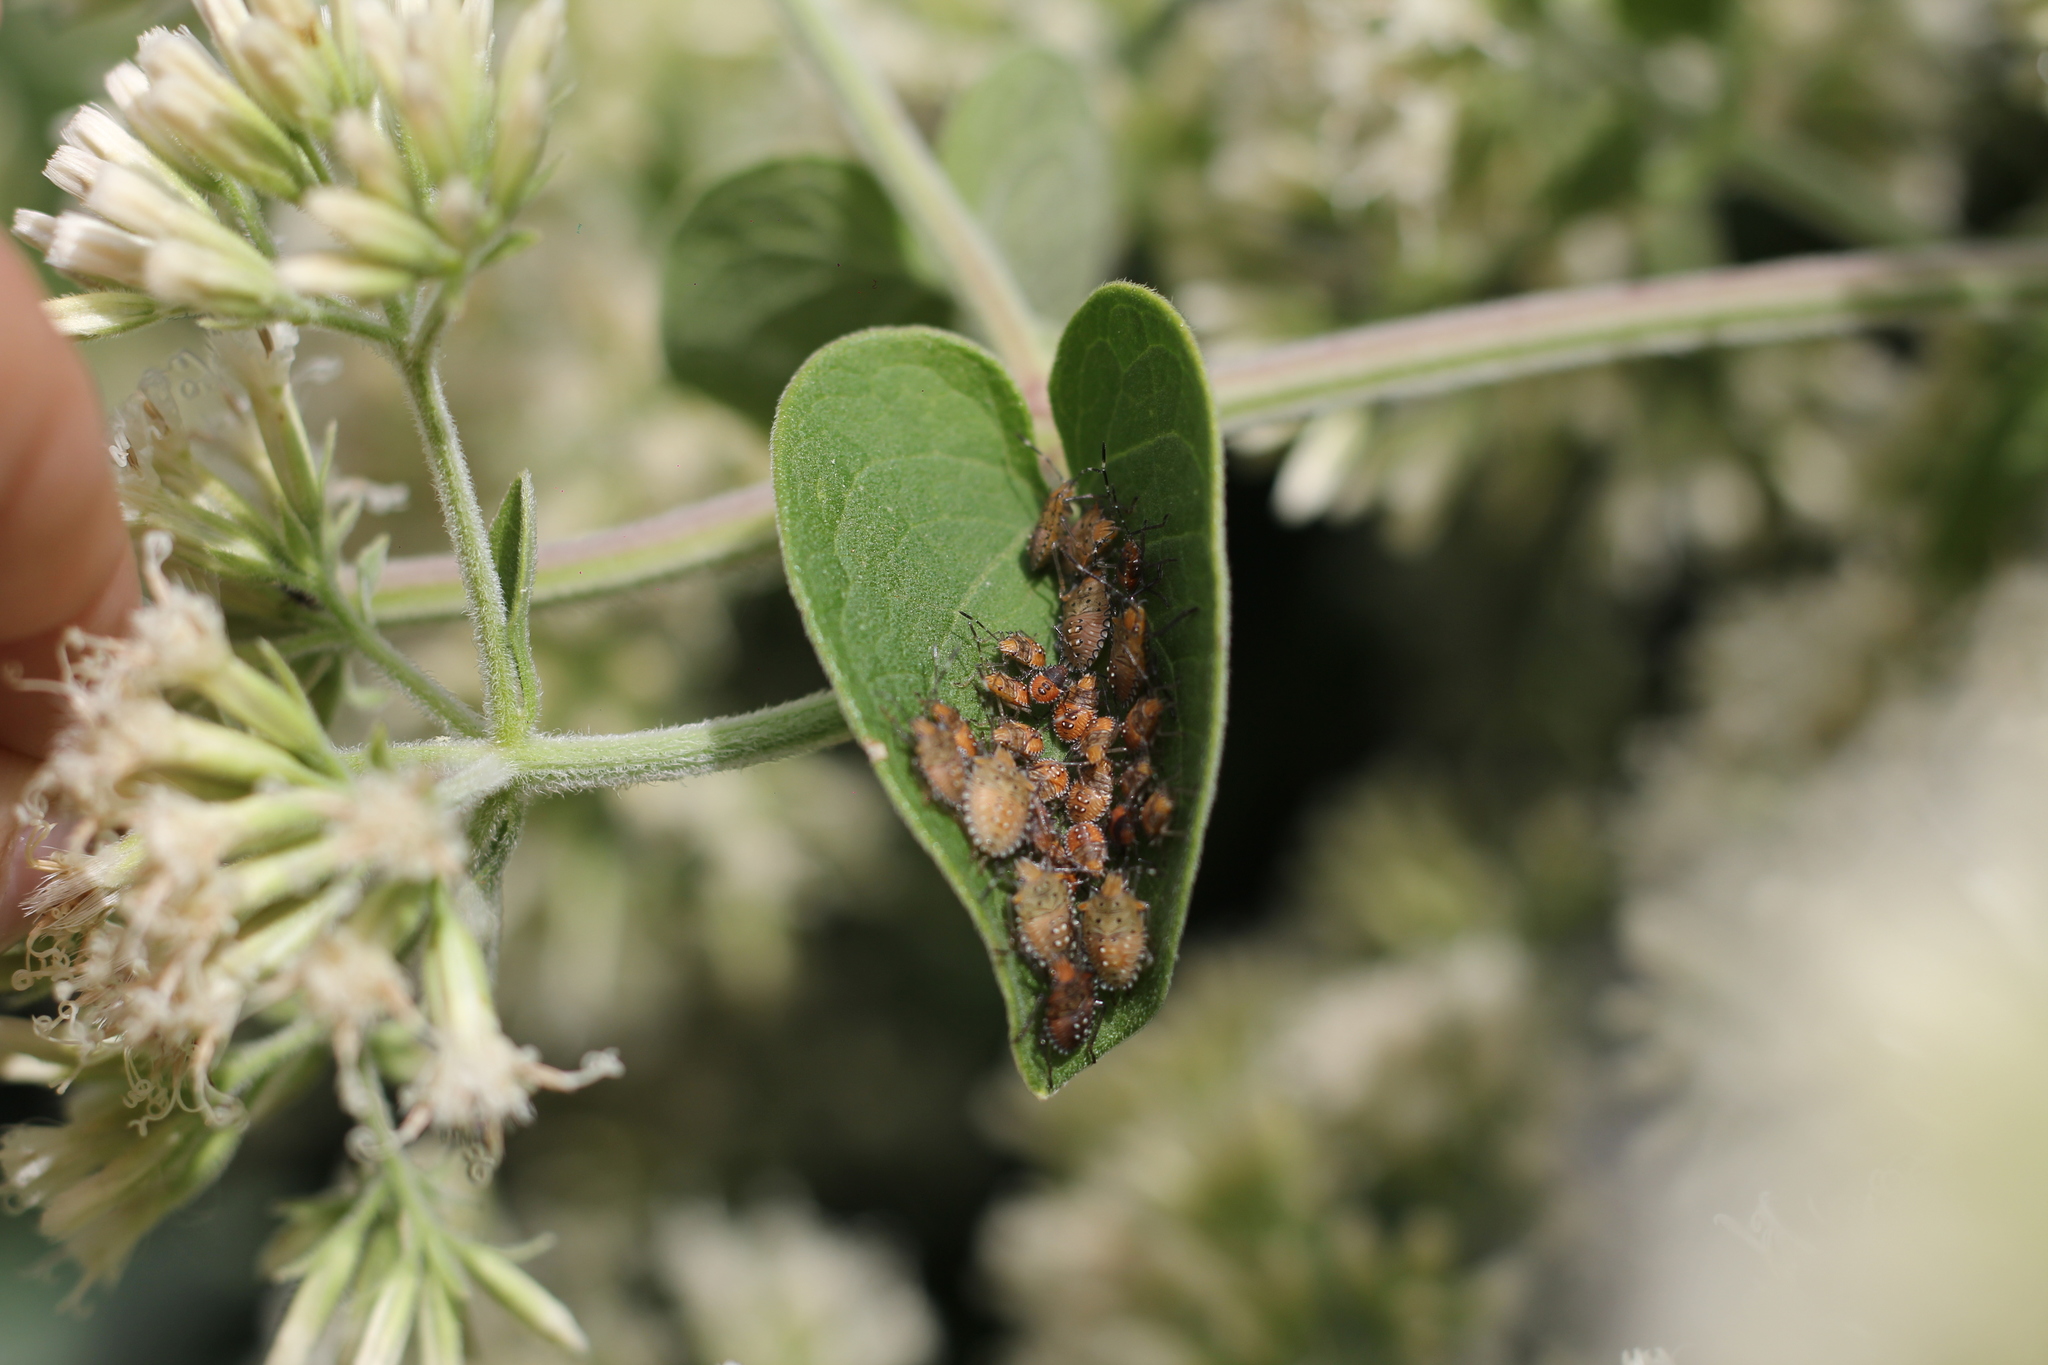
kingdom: Animalia
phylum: Arthropoda
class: Insecta
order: Hemiptera
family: Pentatomidae
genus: Arvelius
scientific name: Arvelius albopunctatus
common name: Tomato stink bug
